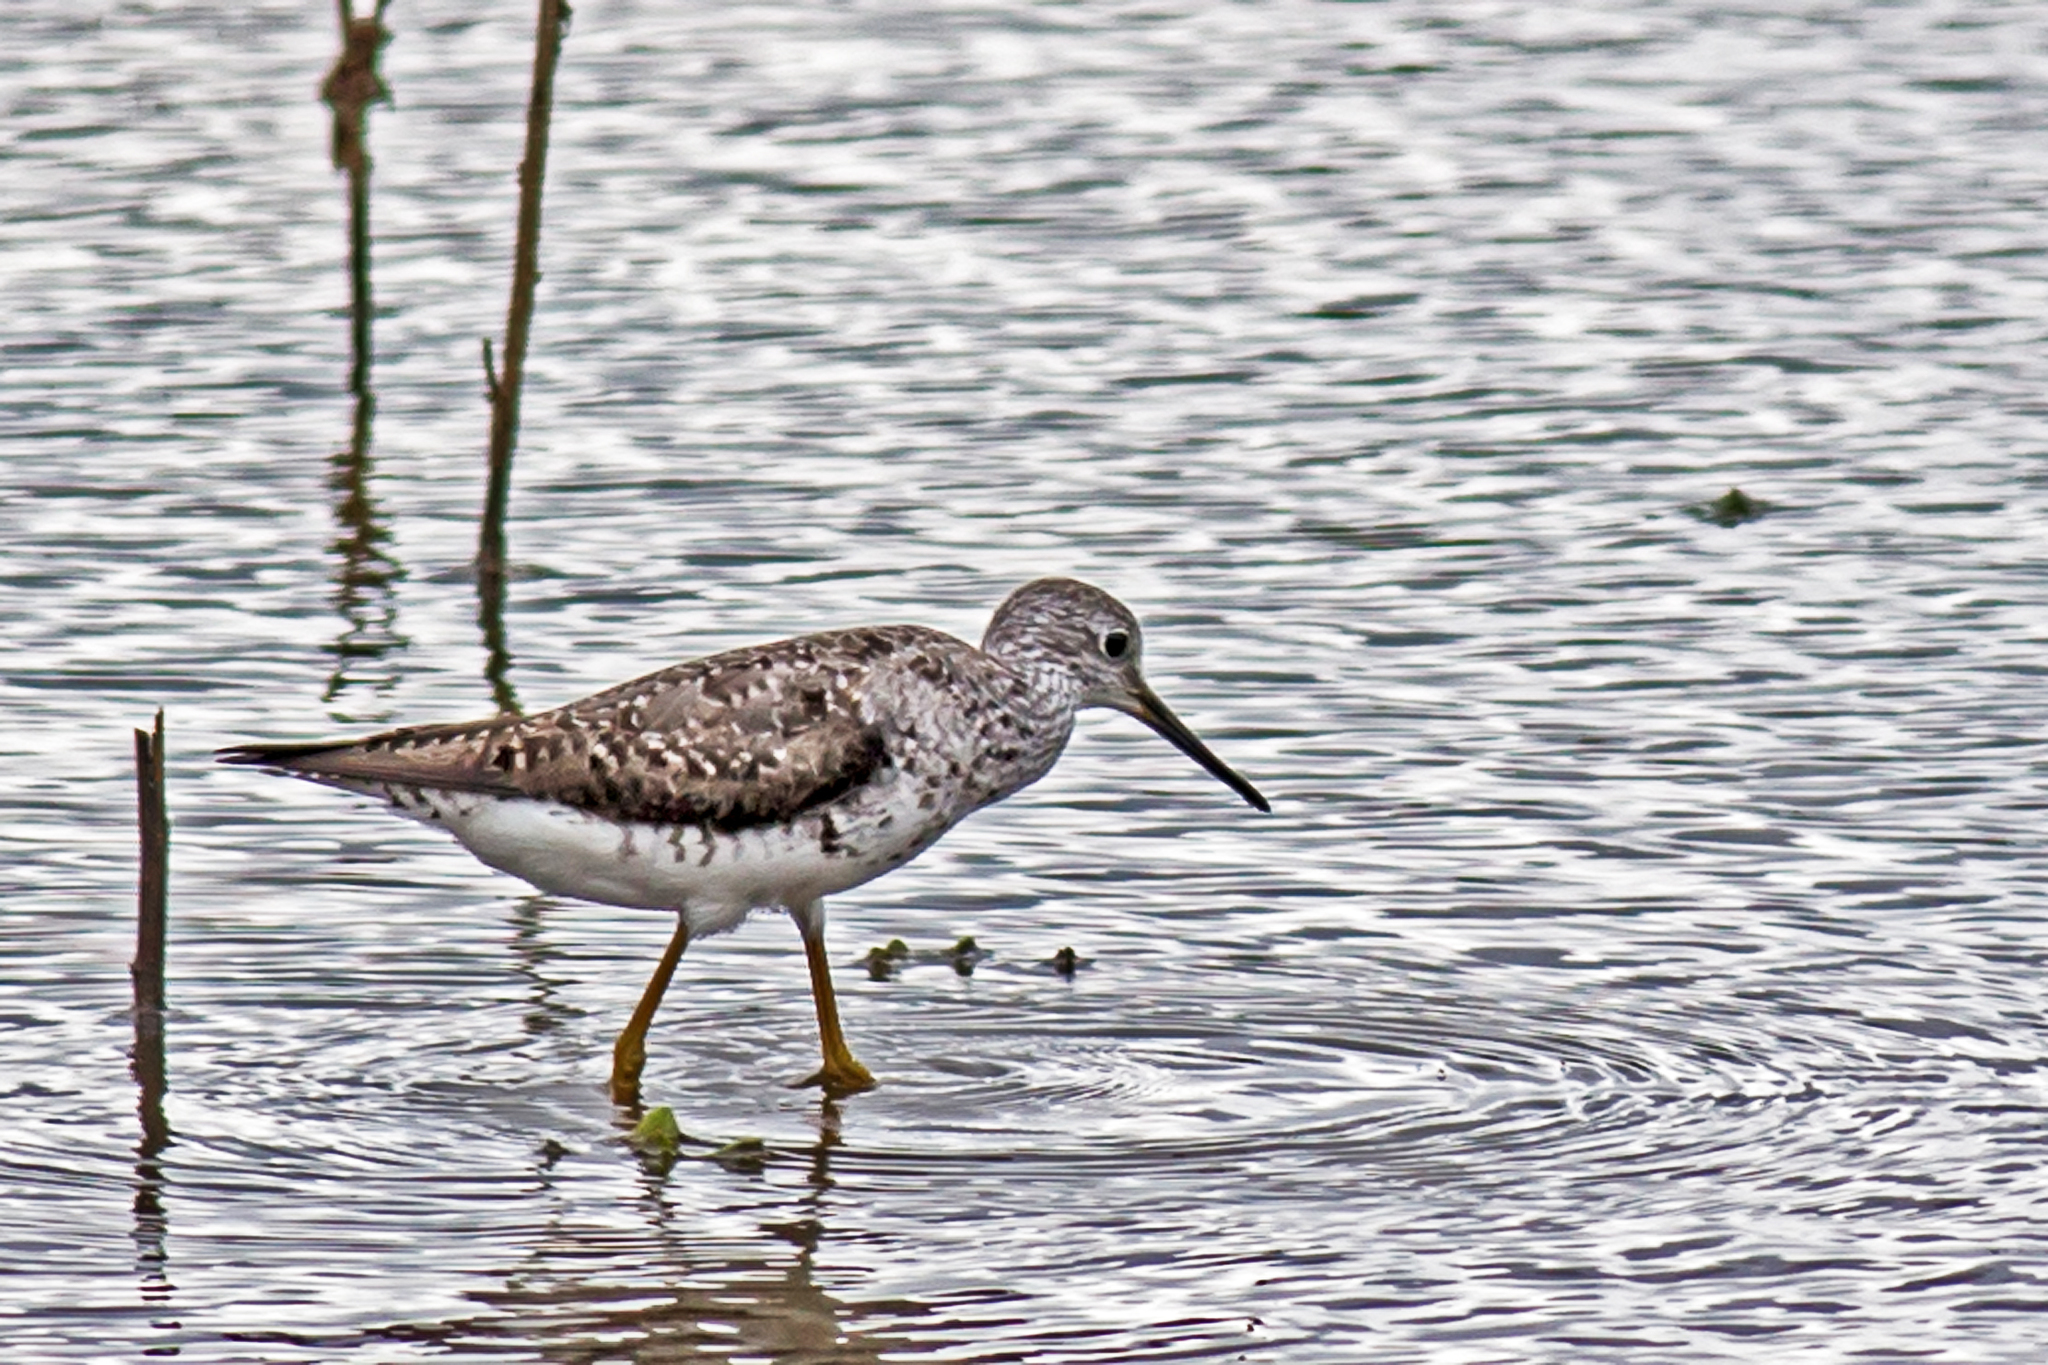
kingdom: Animalia
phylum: Chordata
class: Aves
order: Charadriiformes
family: Scolopacidae
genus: Tringa
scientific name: Tringa melanoleuca
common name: Greater yellowlegs
